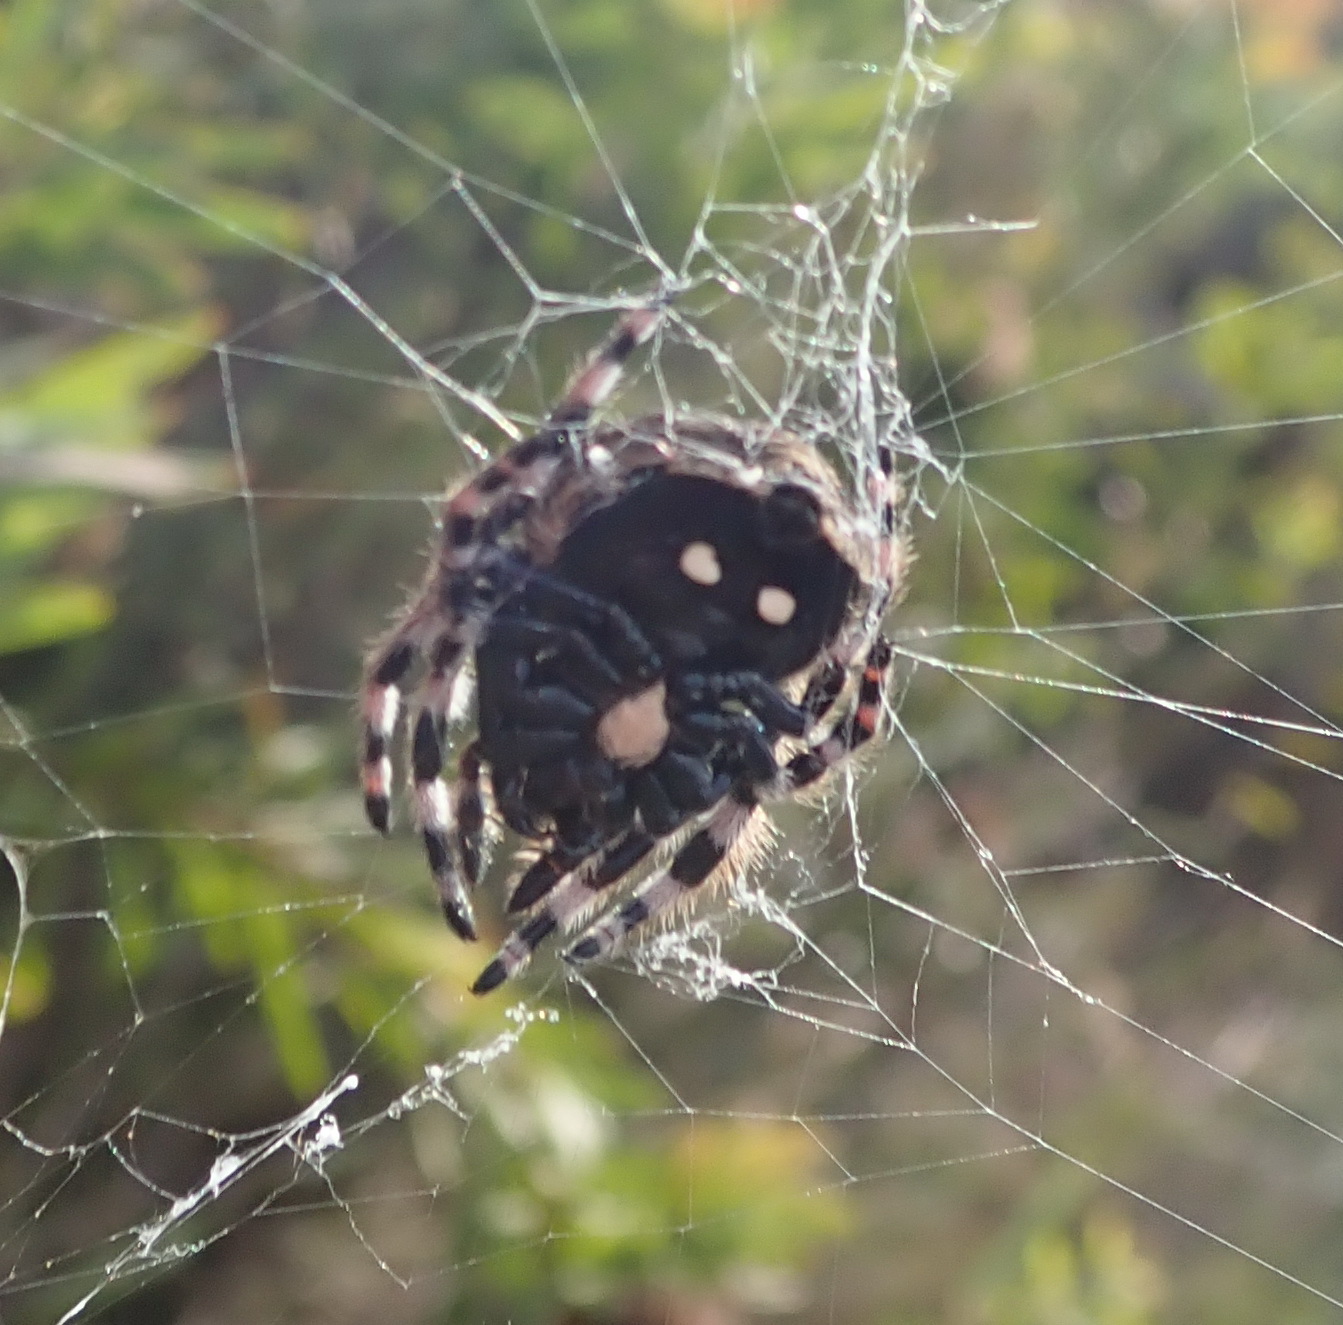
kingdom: Animalia
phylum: Arthropoda
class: Arachnida
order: Araneae
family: Araneidae
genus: Caerostris
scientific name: Caerostris sexcuspidata
